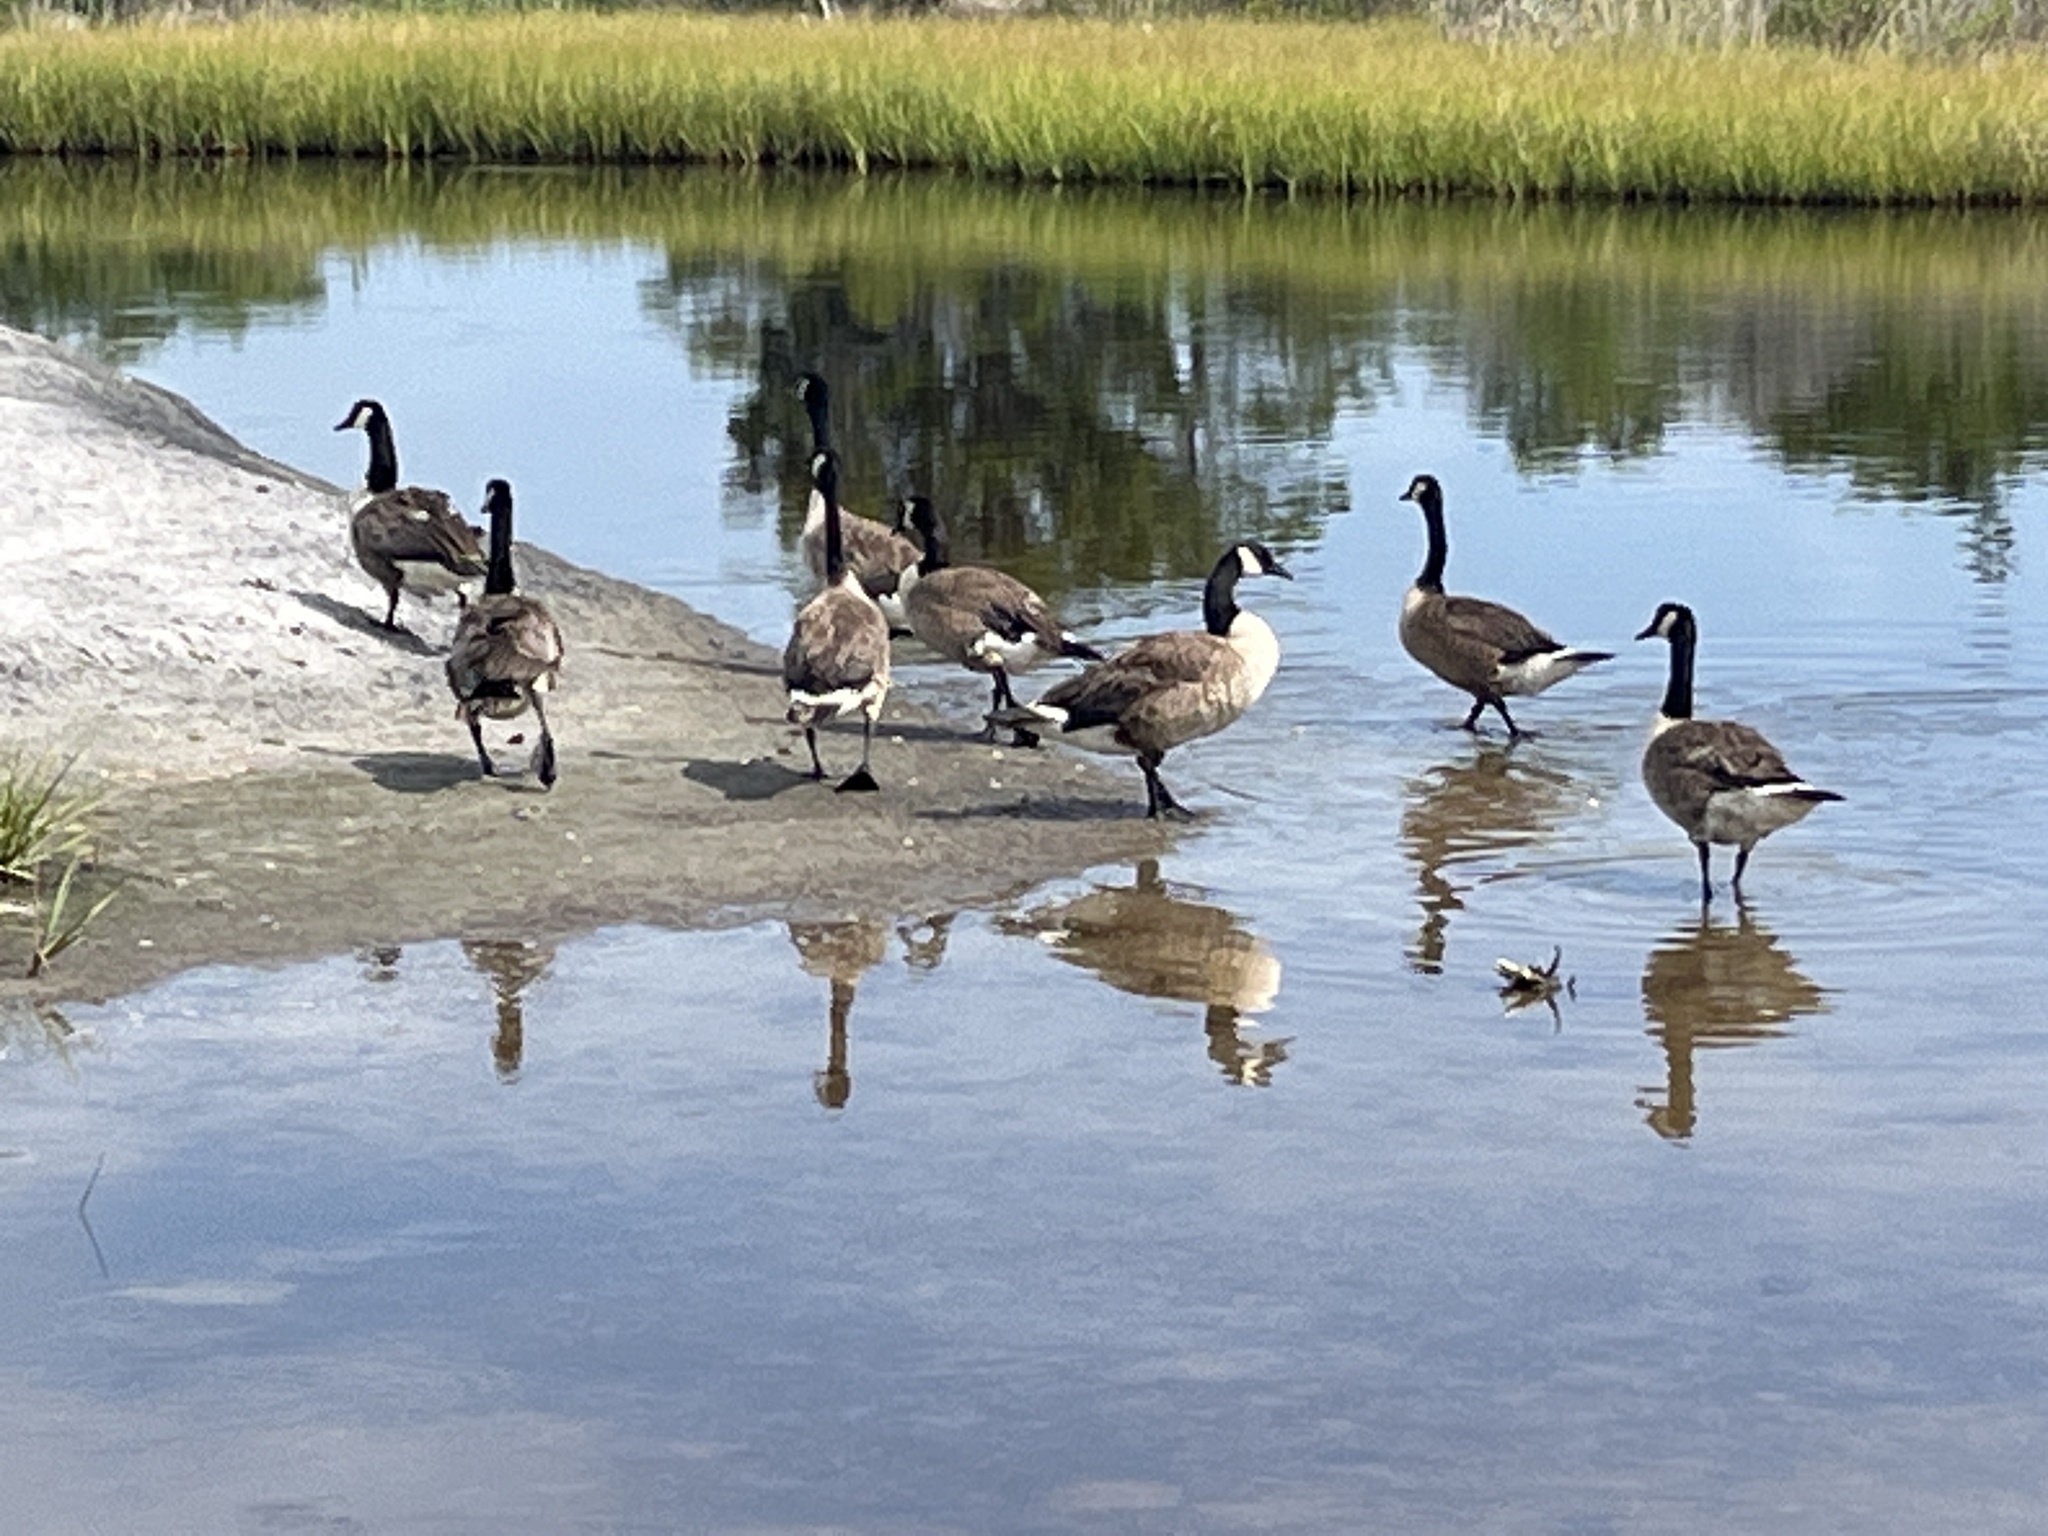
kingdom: Animalia
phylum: Chordata
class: Aves
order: Anseriformes
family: Anatidae
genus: Branta
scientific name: Branta canadensis
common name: Canada goose
